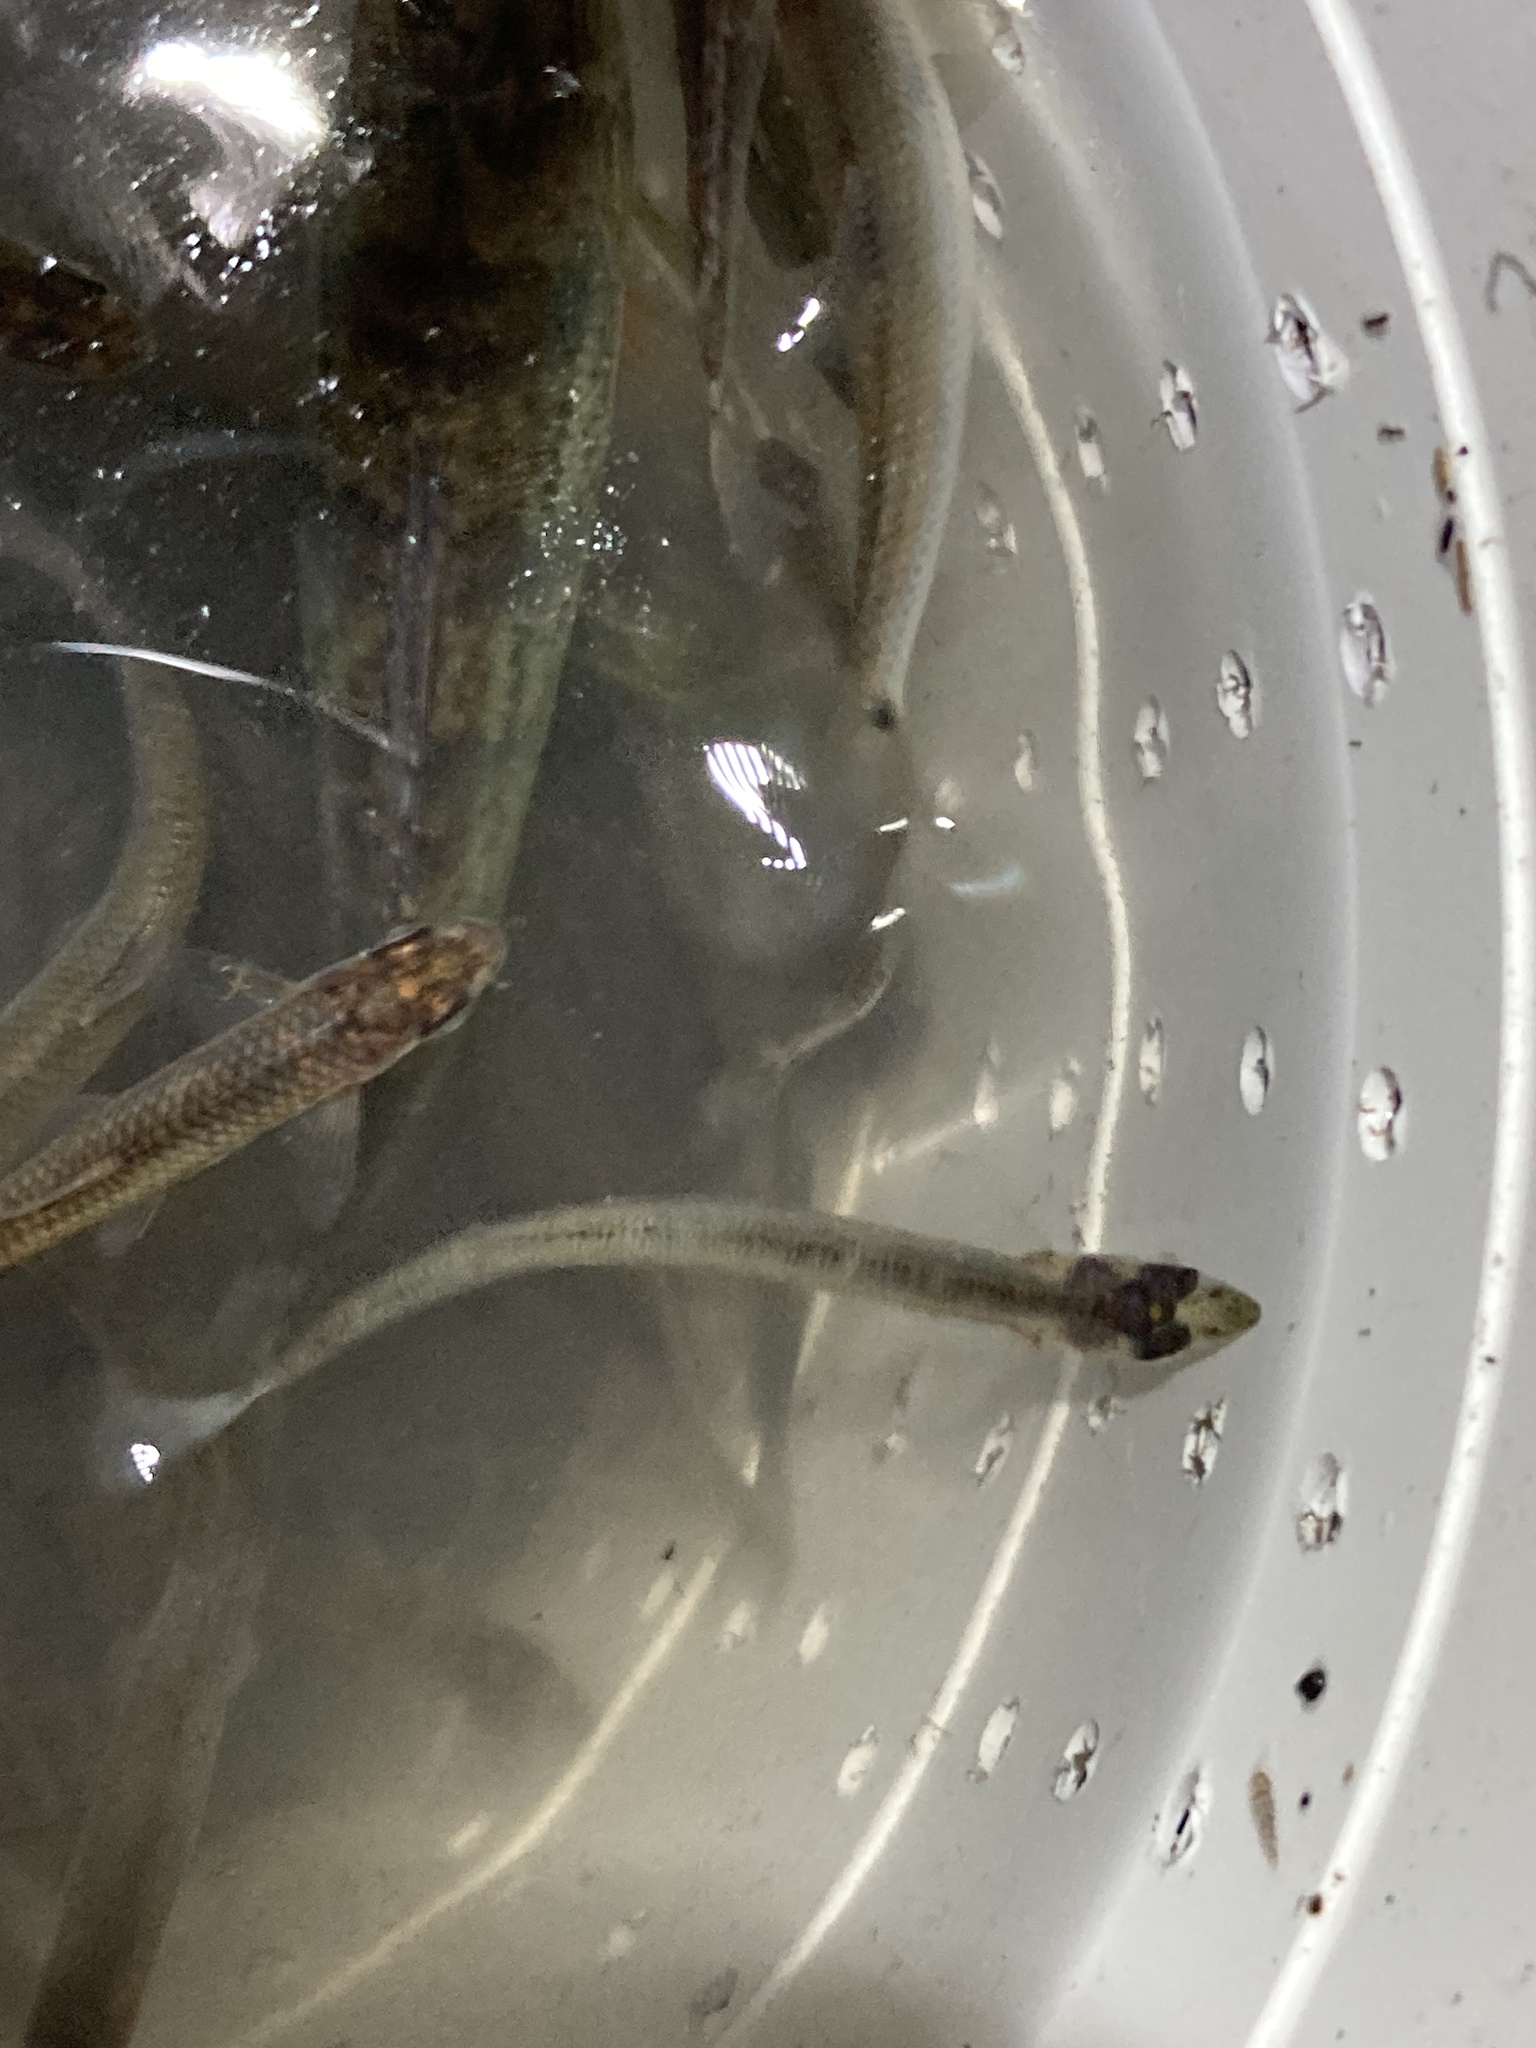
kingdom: Animalia
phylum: Chordata
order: Atheriniformes
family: Atherinopsidae
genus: Labidesthes
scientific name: Labidesthes sicculus
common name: Brook silverside
